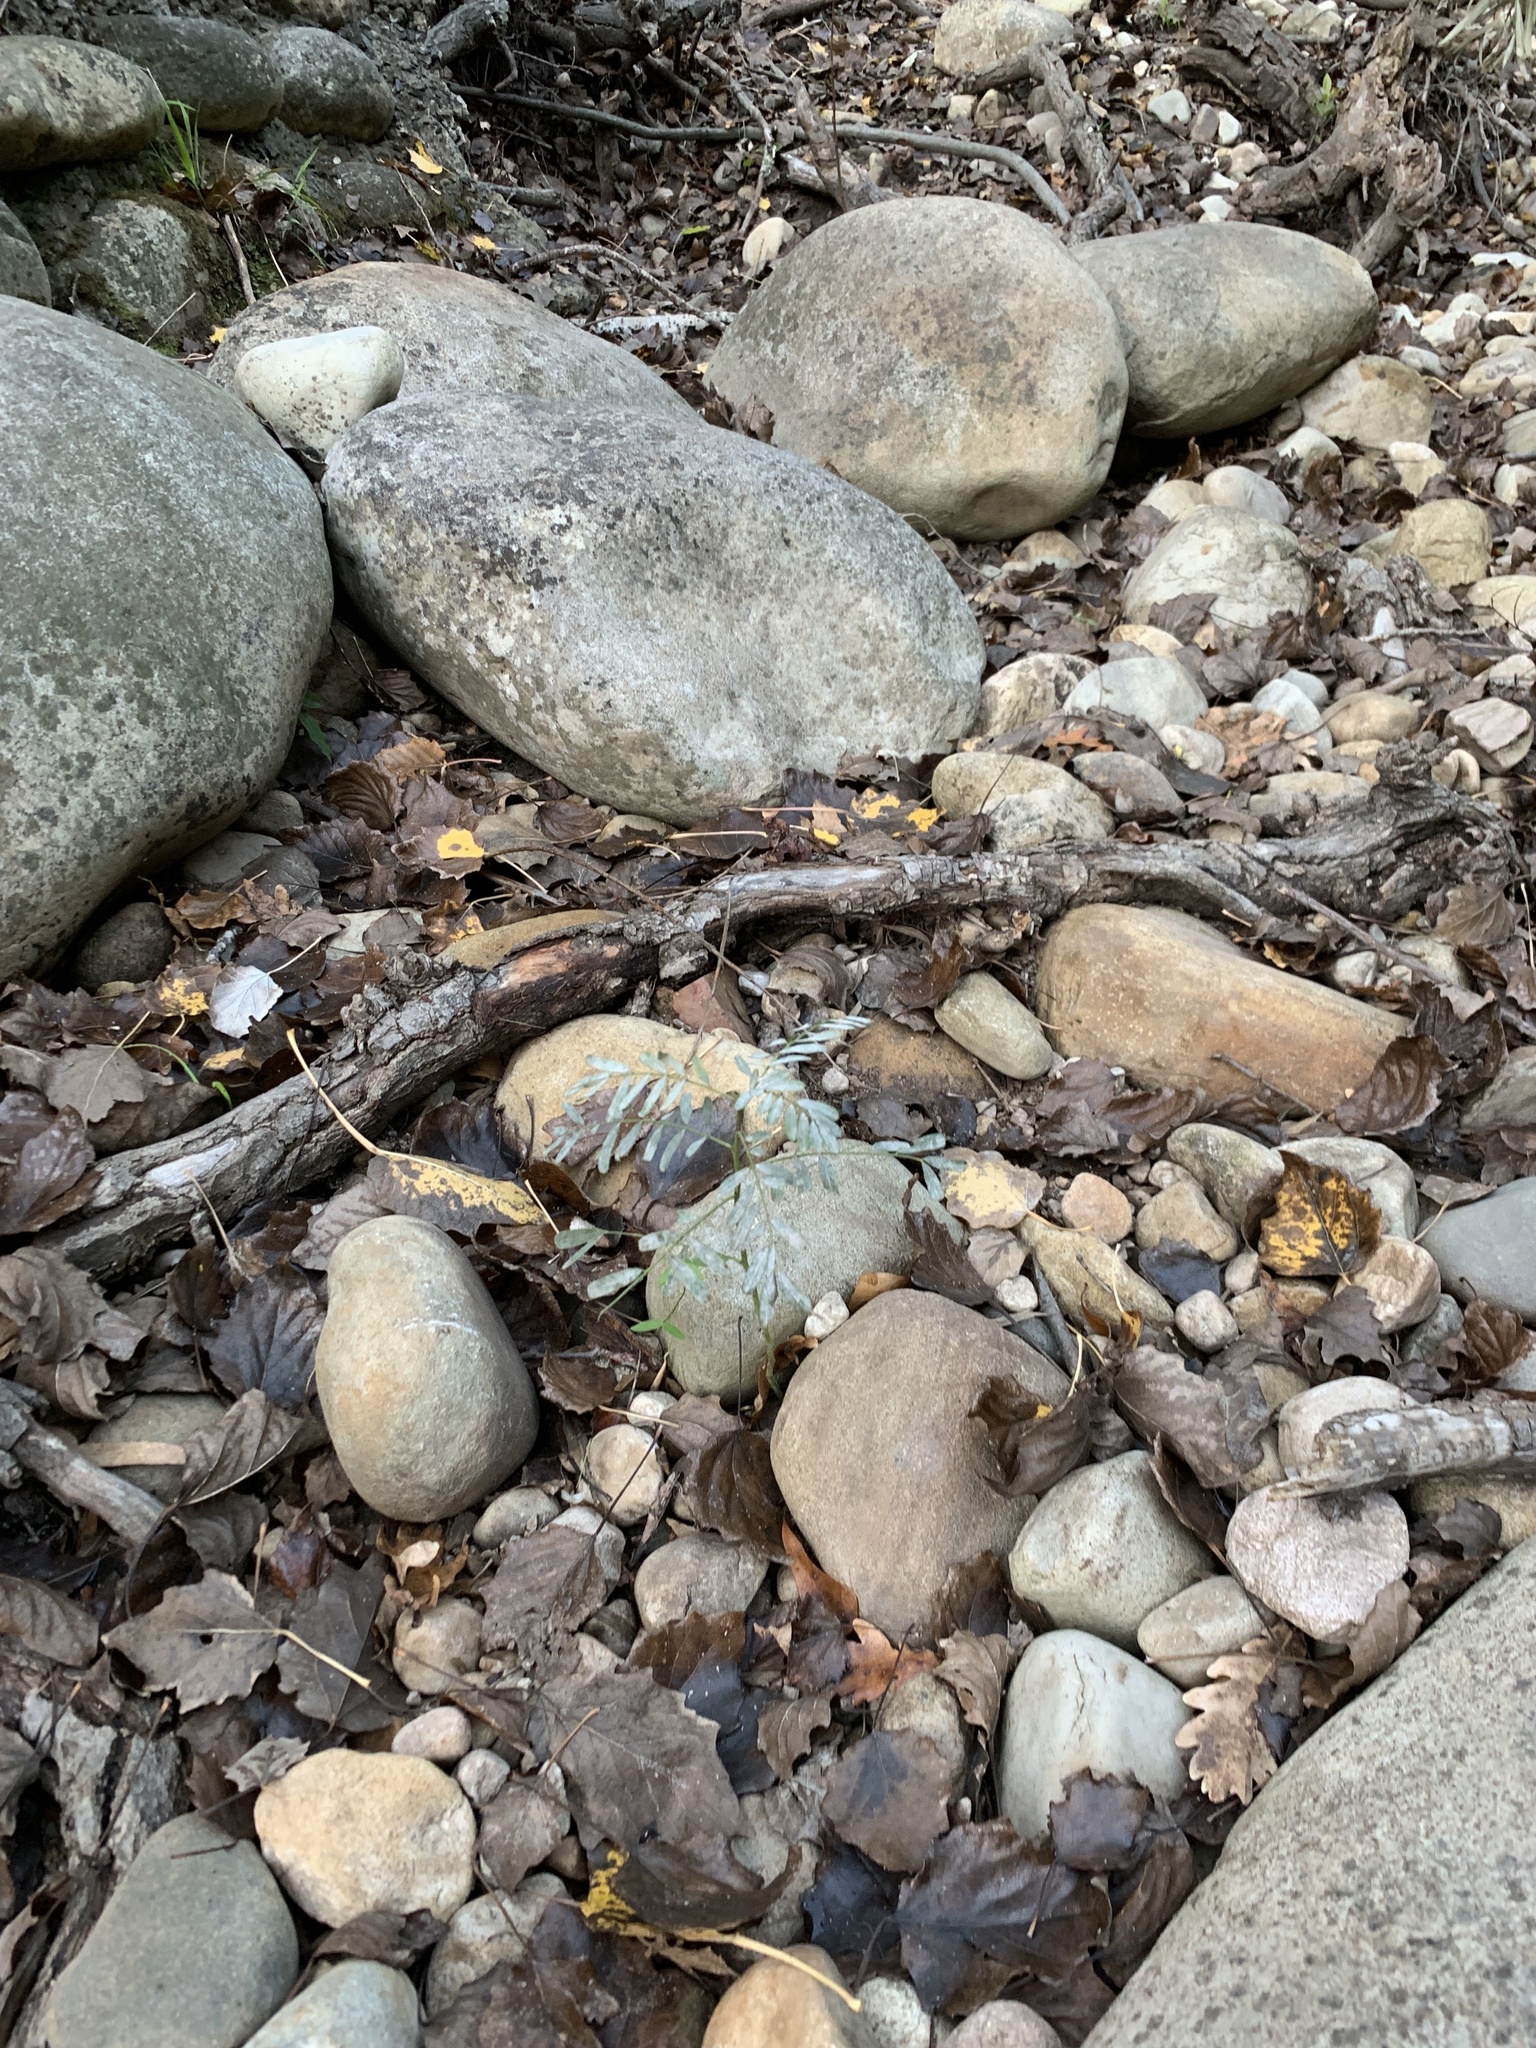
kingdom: Plantae
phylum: Tracheophyta
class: Magnoliopsida
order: Fabales
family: Fabaceae
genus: Sesbania
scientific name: Sesbania punicea
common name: Rattlebox
